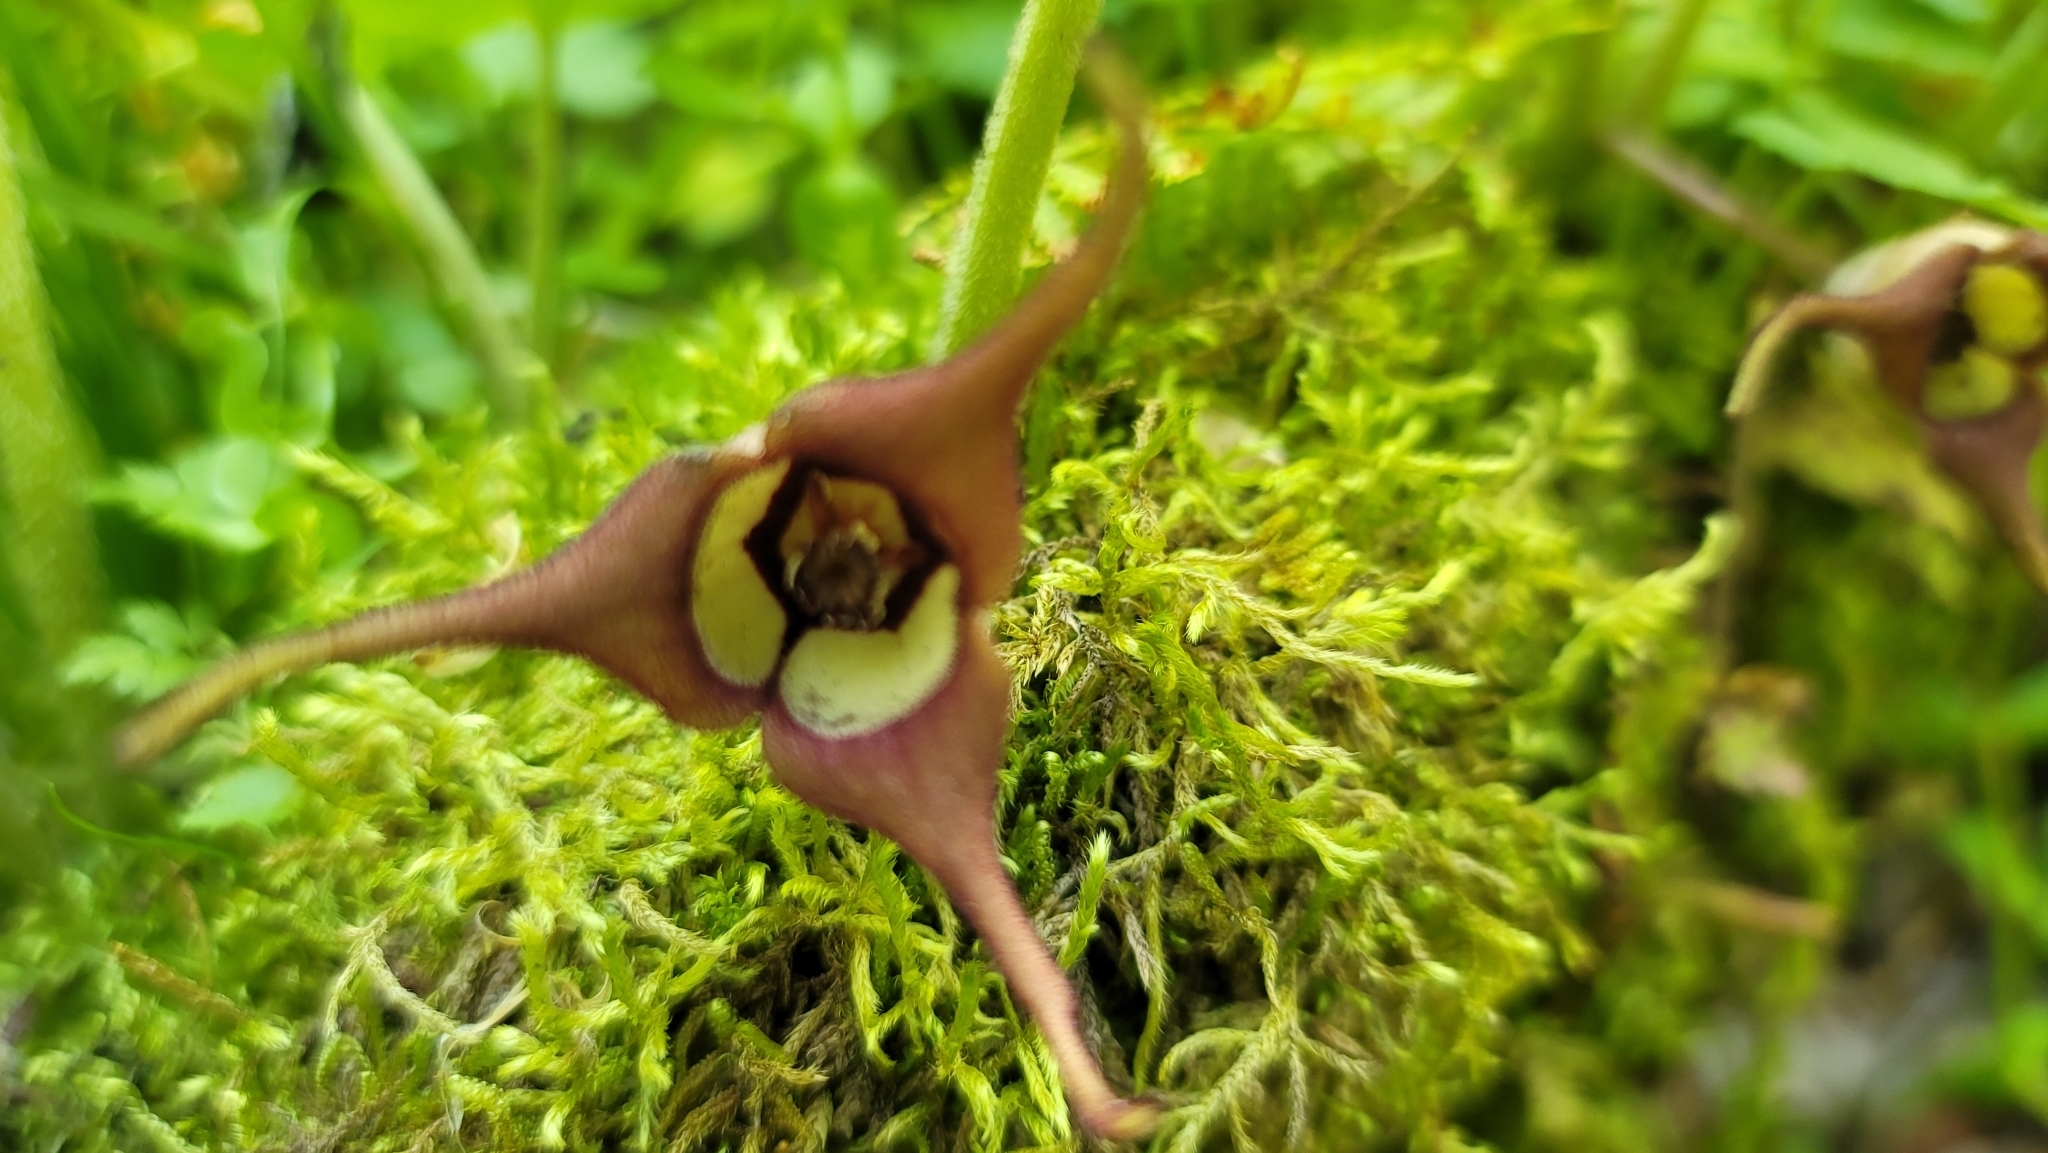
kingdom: Plantae
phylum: Tracheophyta
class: Magnoliopsida
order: Piperales
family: Aristolochiaceae
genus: Asarum
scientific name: Asarum canadense
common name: Wild ginger
